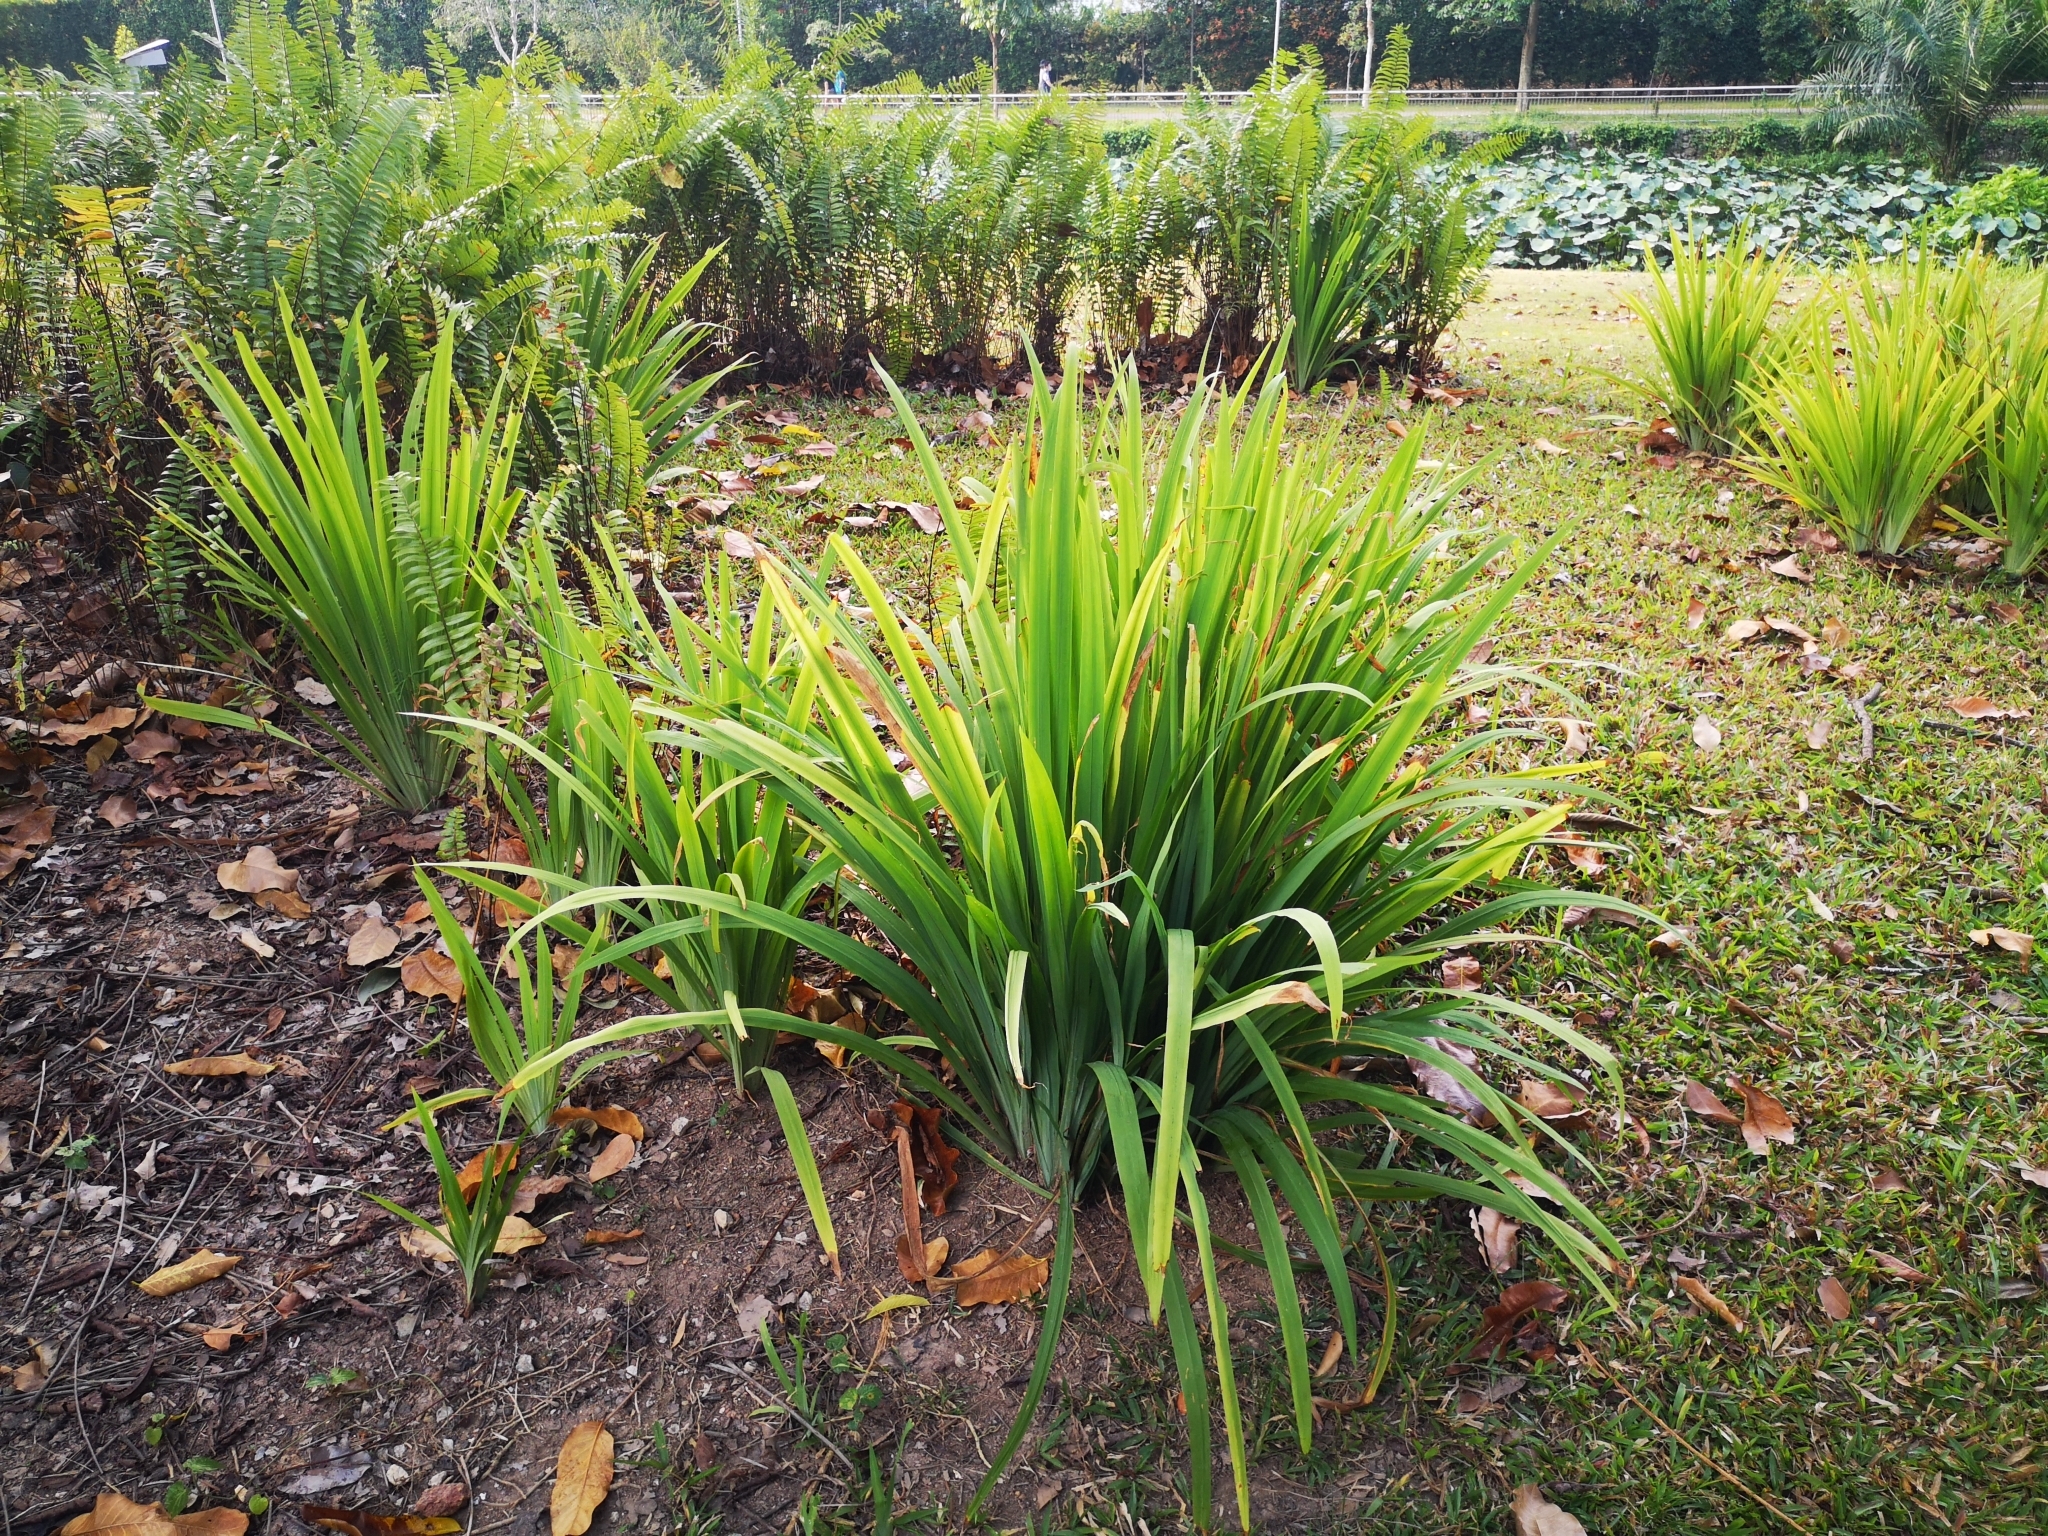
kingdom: Plantae
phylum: Tracheophyta
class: Liliopsida
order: Asparagales
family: Iridaceae
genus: Trimezia
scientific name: Trimezia steyermarkii
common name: Trimezia
